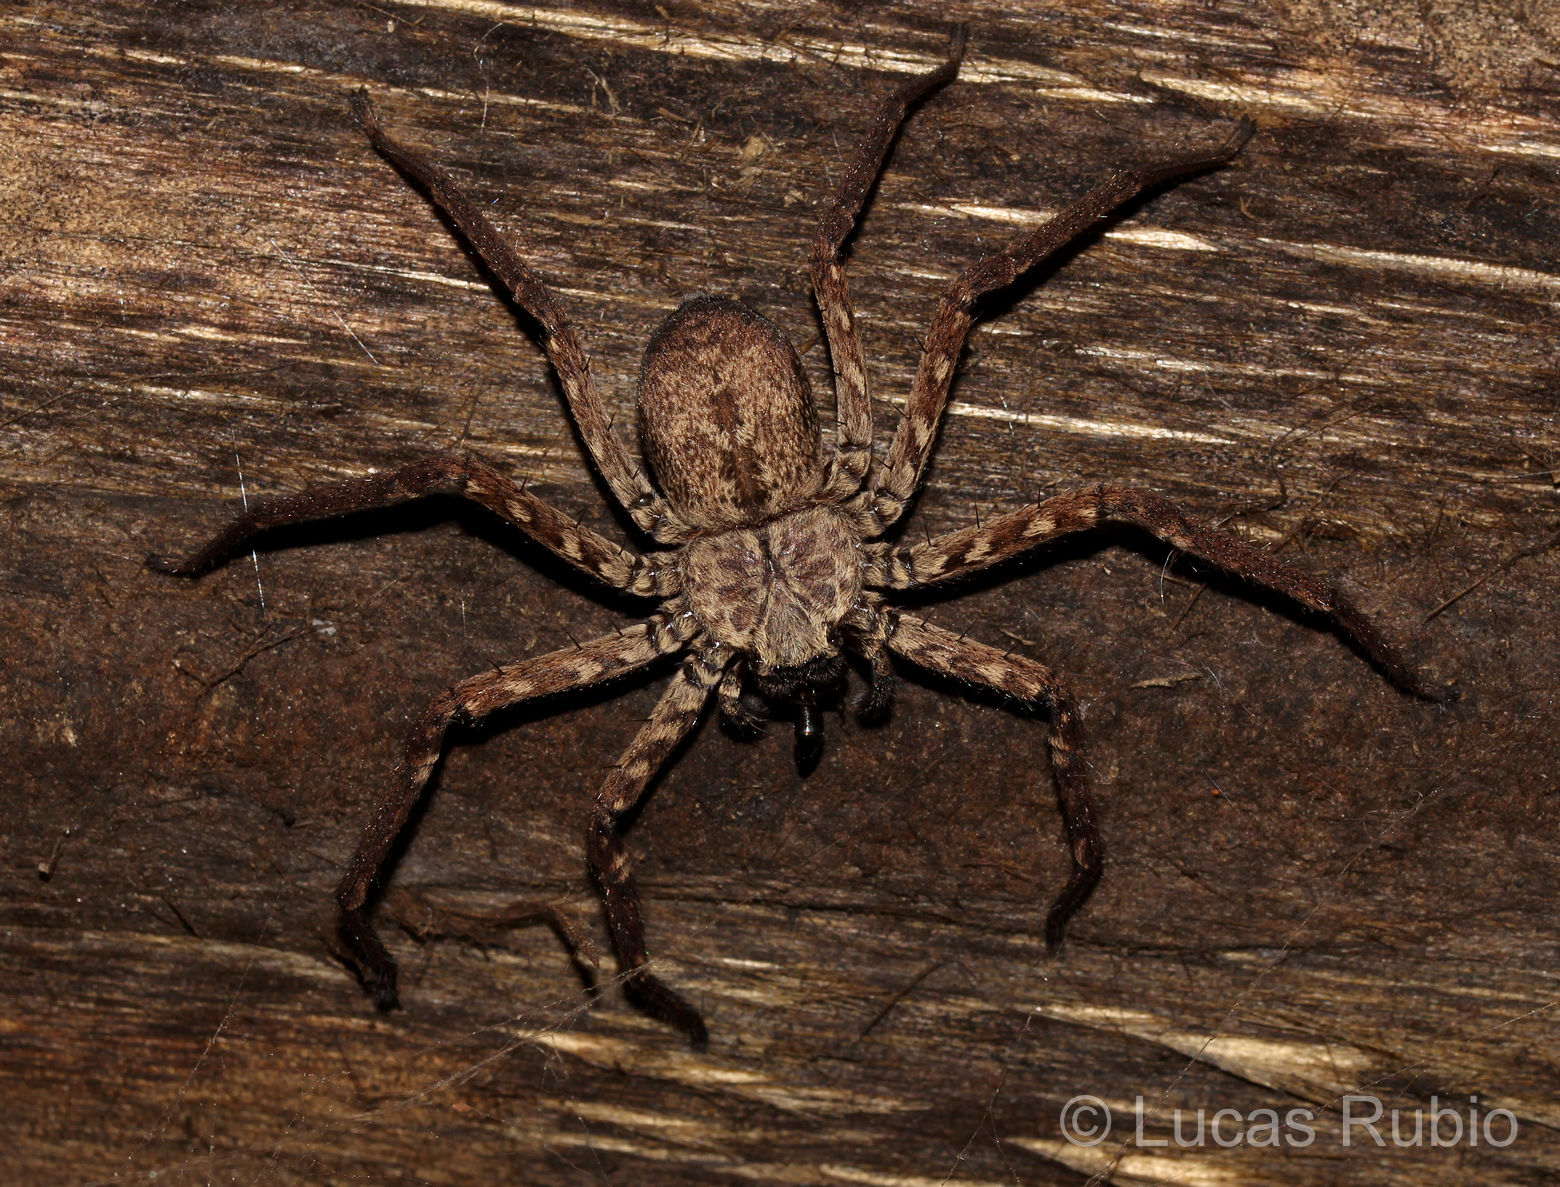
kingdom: Animalia
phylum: Arthropoda
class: Arachnida
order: Araneae
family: Selenopidae
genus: Selenops
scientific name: Selenops
